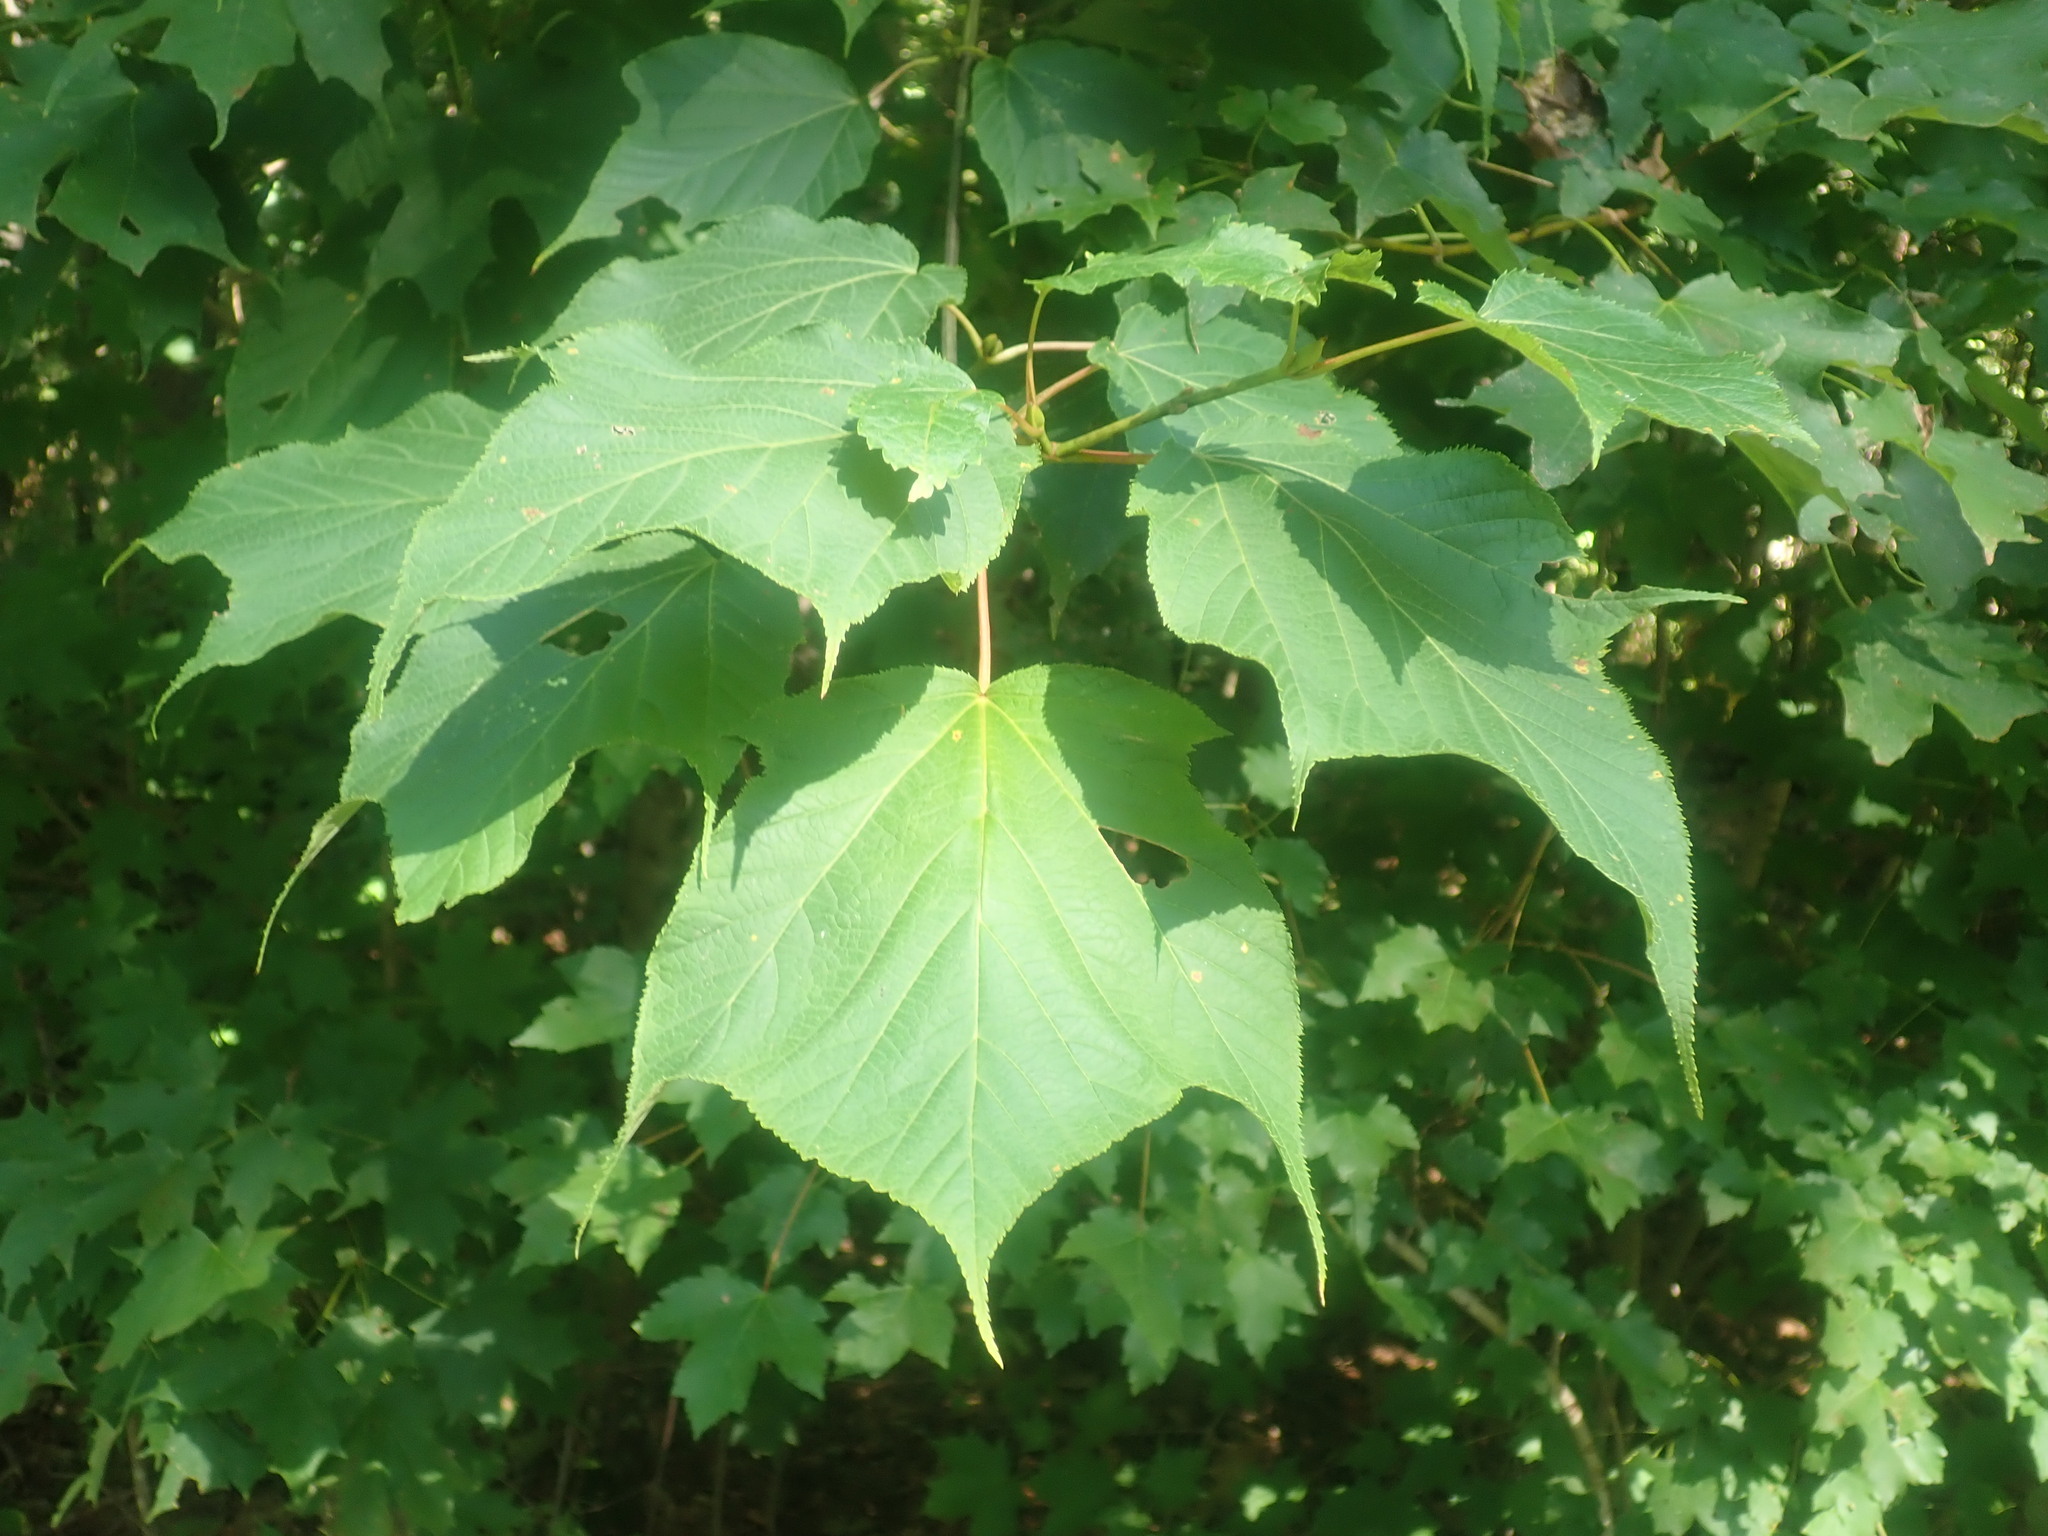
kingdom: Plantae
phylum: Tracheophyta
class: Magnoliopsida
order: Sapindales
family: Sapindaceae
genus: Acer
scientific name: Acer pensylvanicum
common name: Moosewood
